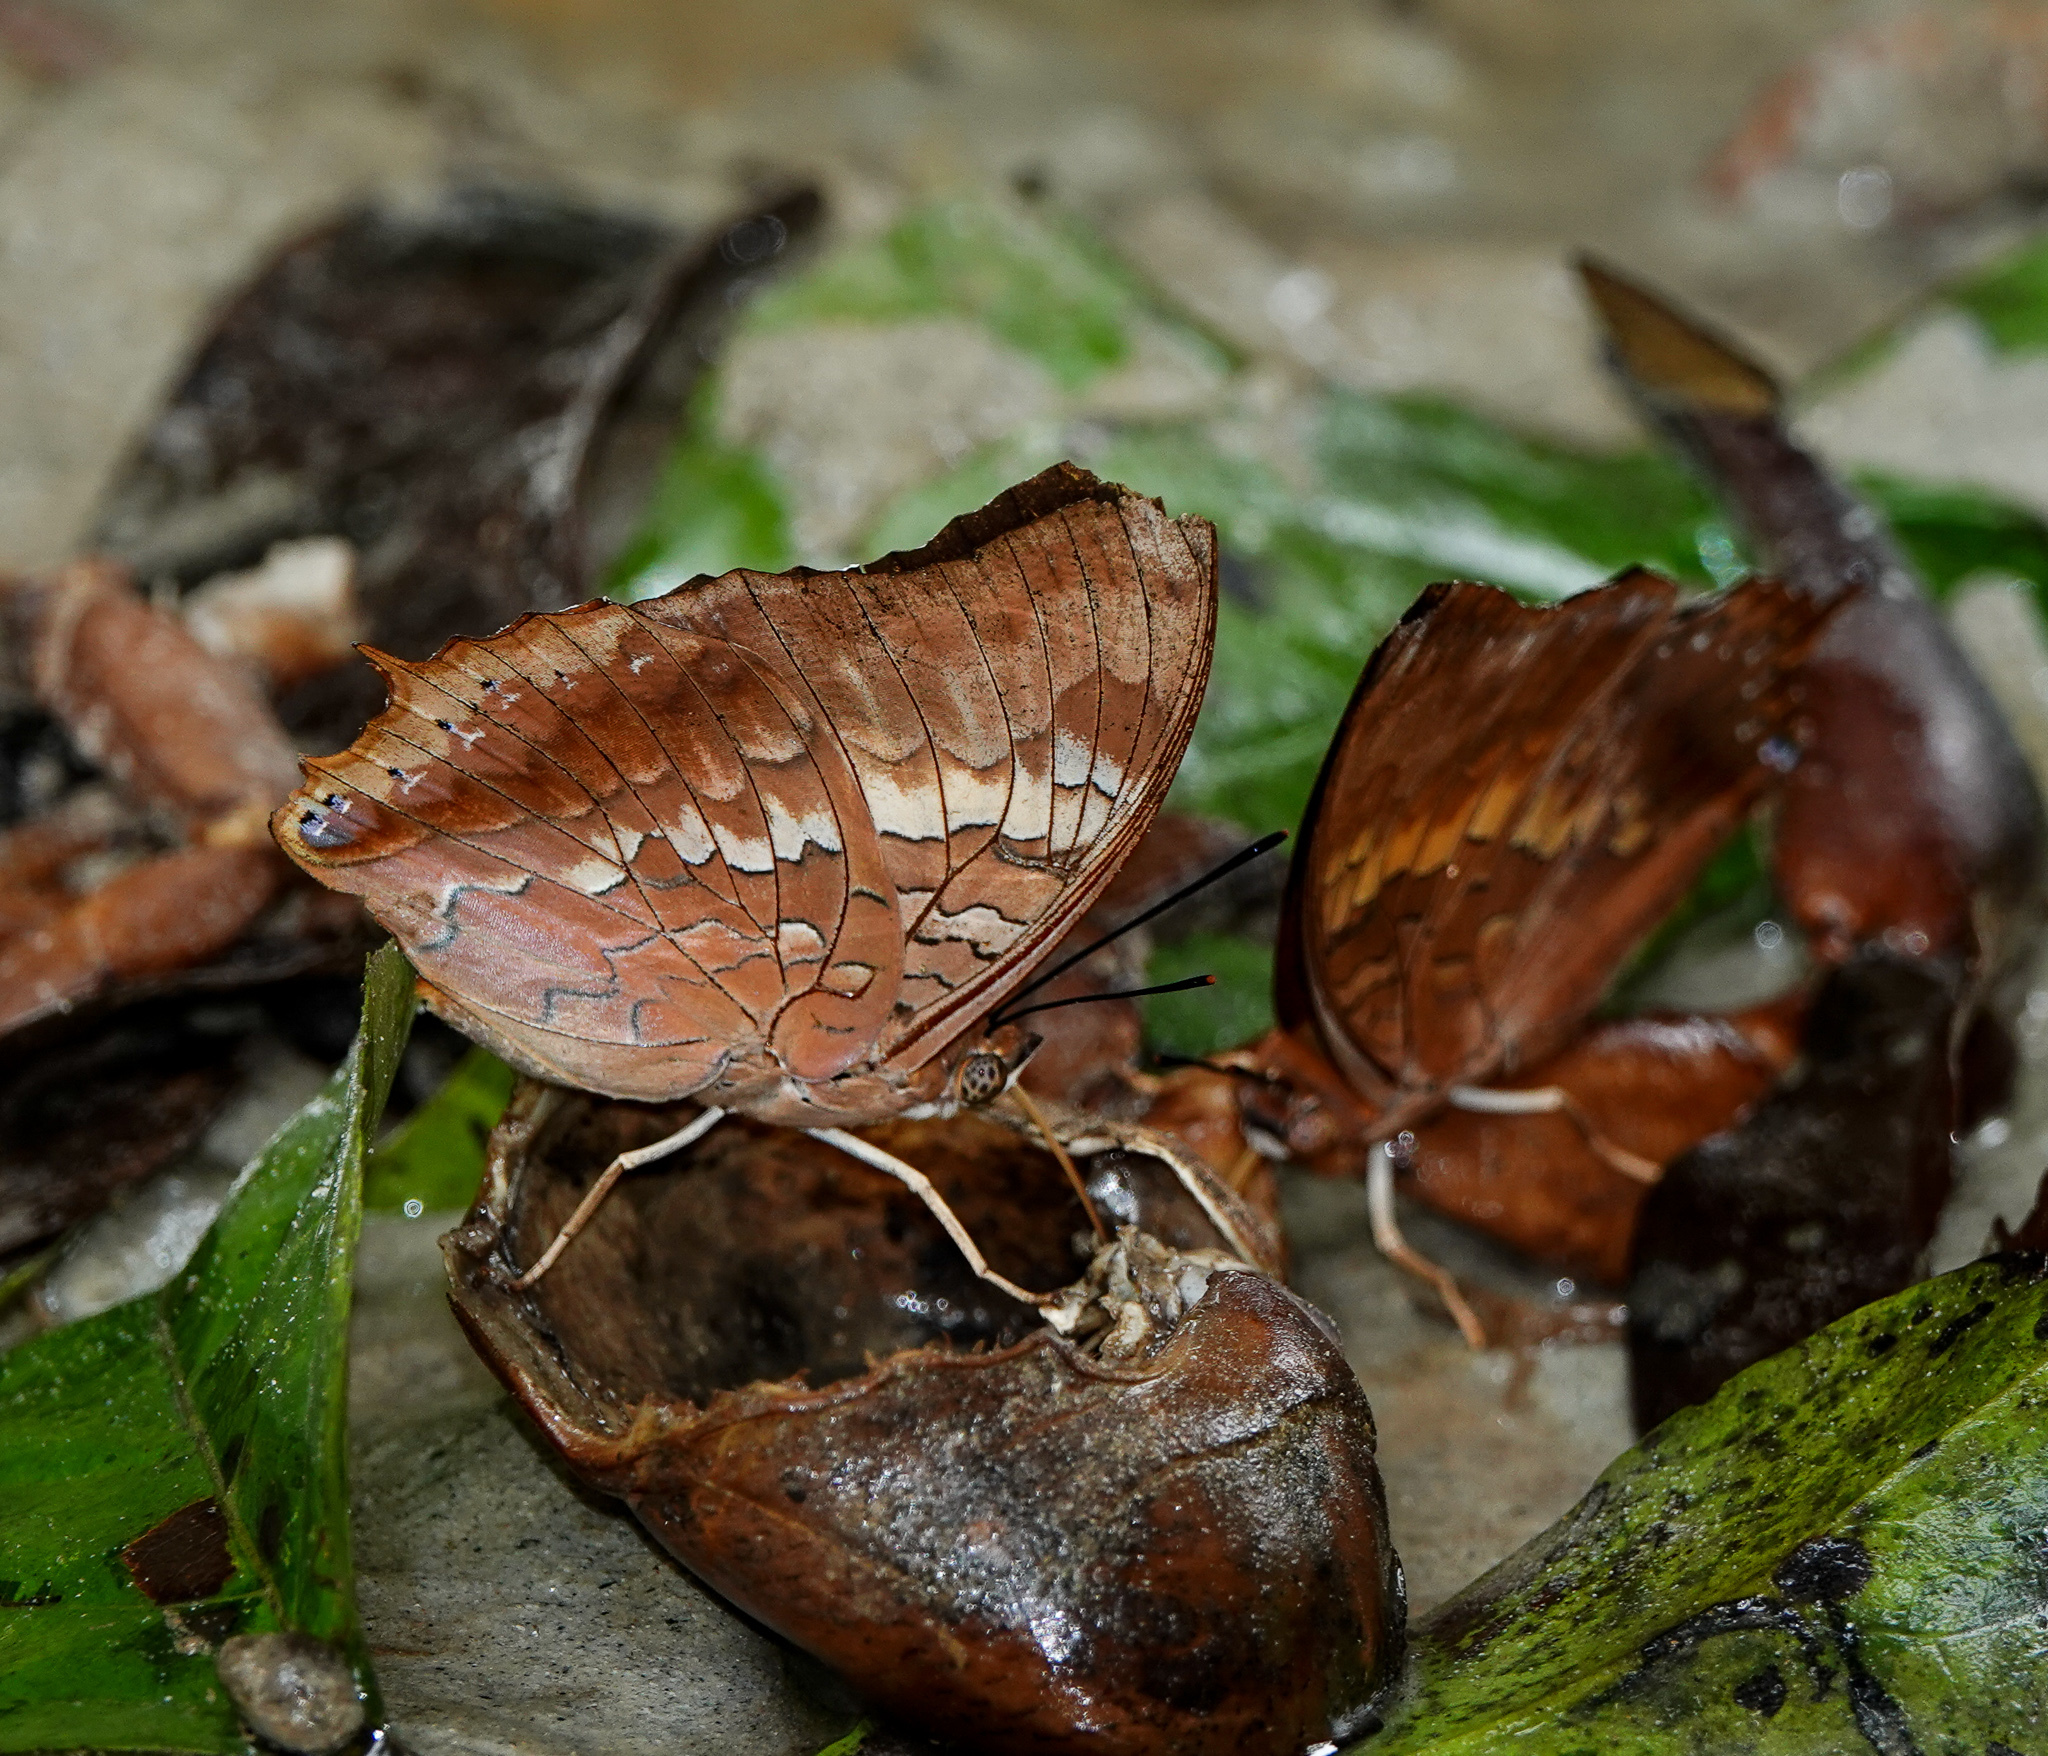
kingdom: Animalia
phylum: Arthropoda
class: Insecta
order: Lepidoptera
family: Nymphalidae
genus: Charaxes
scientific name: Charaxes bernardus
